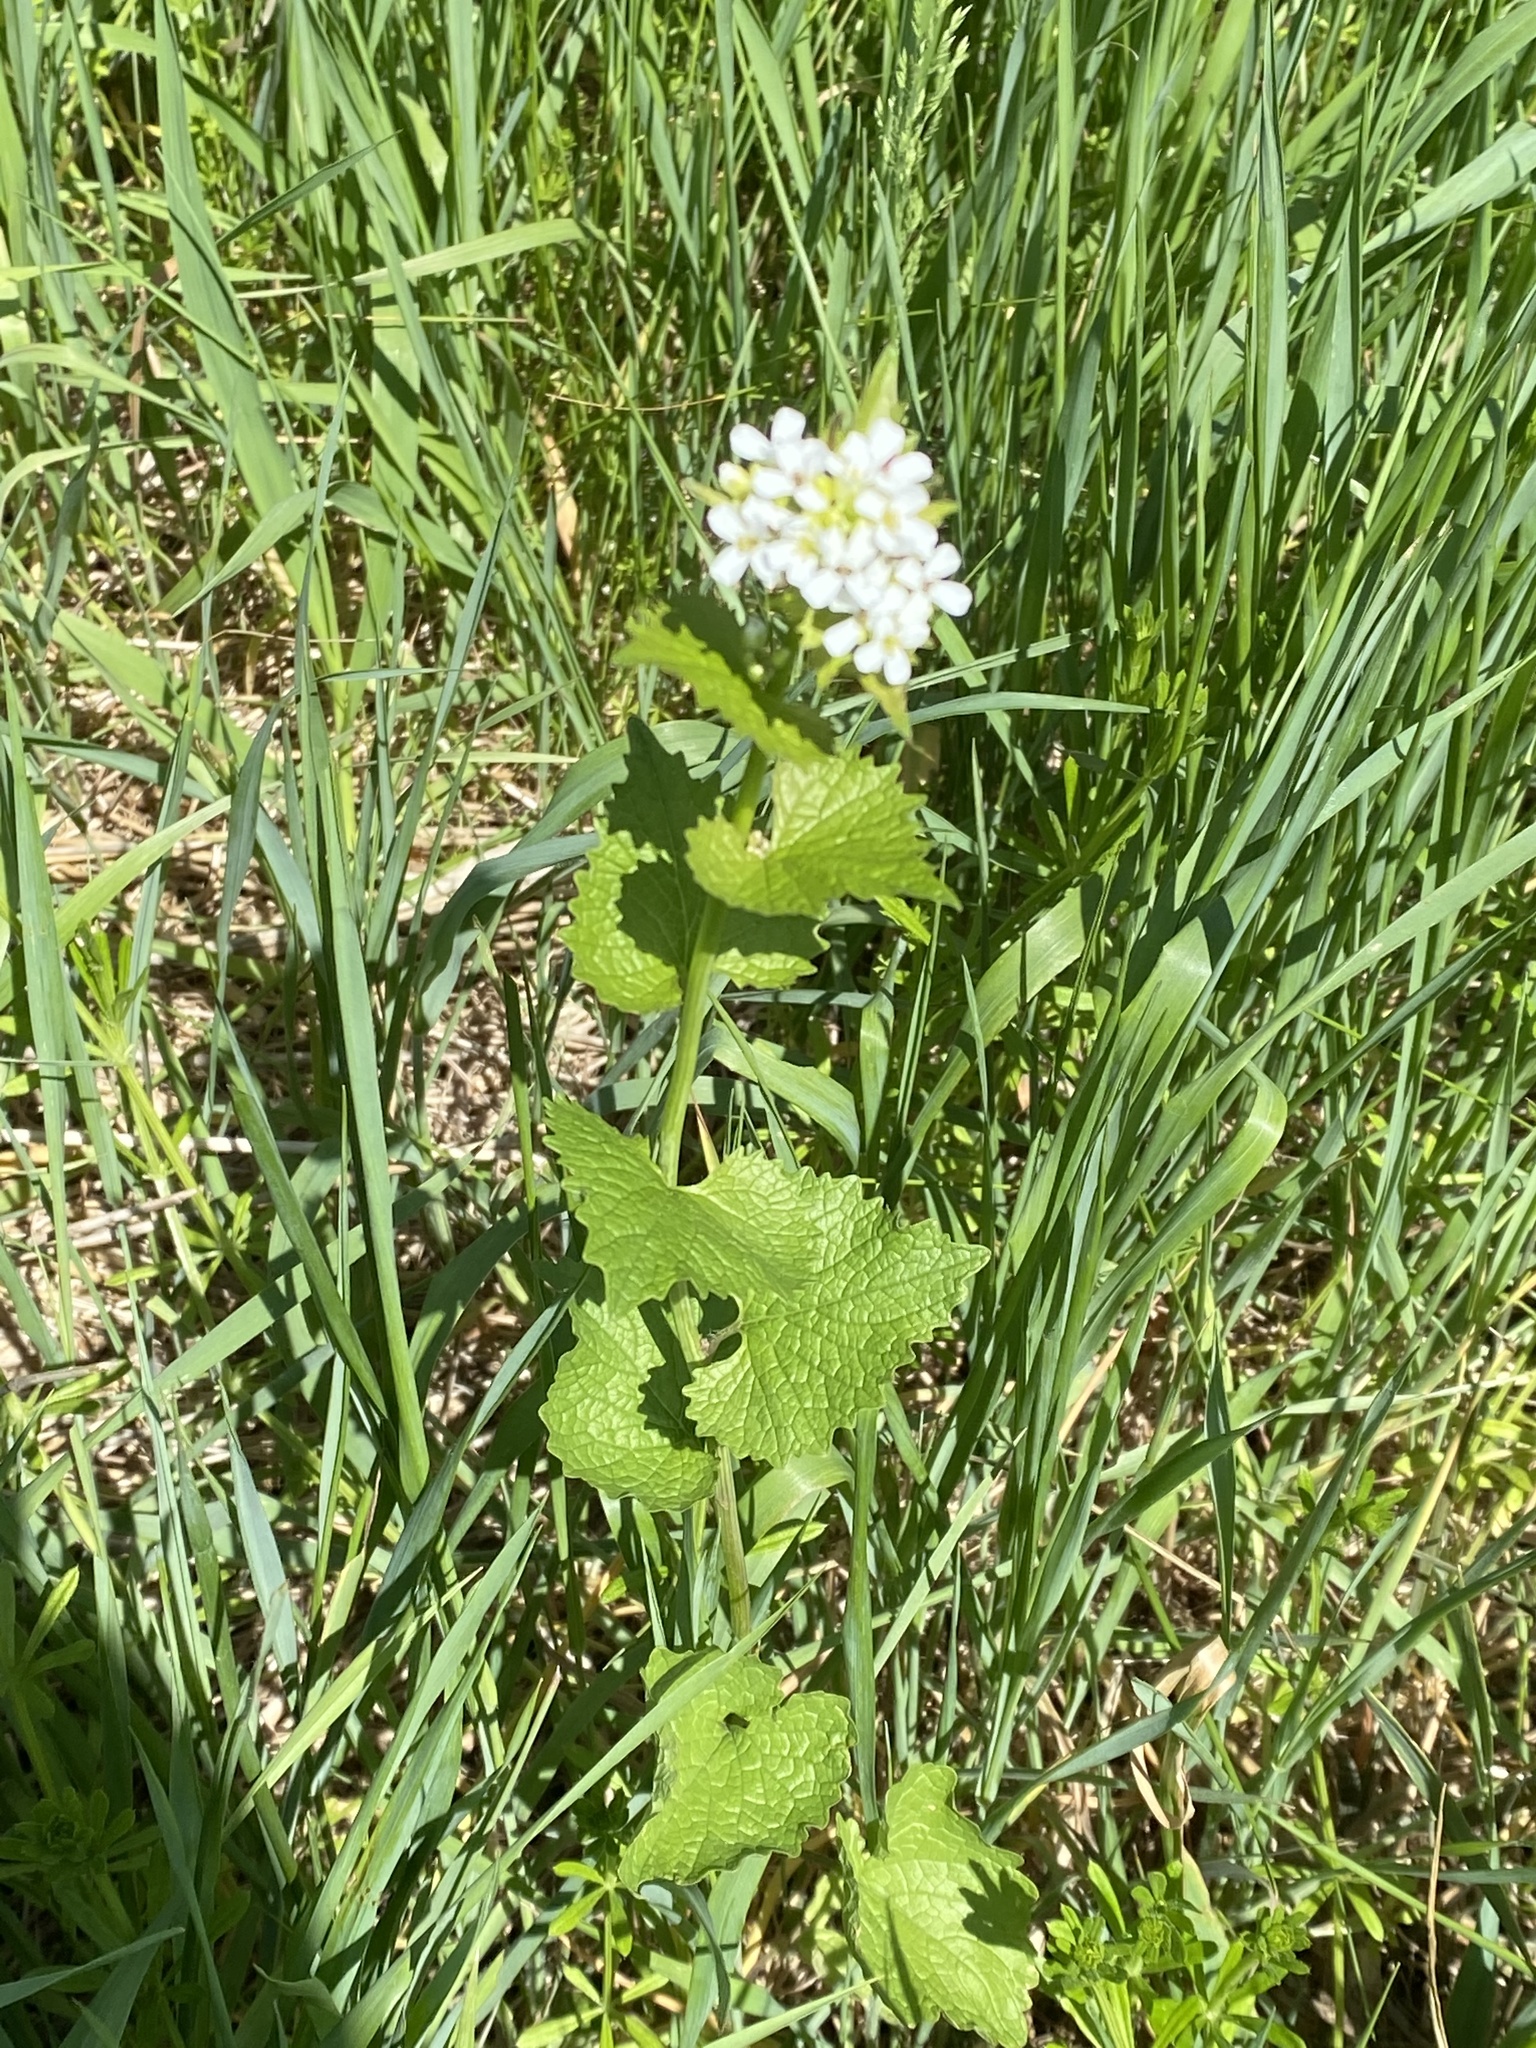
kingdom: Plantae
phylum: Tracheophyta
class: Magnoliopsida
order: Brassicales
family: Brassicaceae
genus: Alliaria
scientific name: Alliaria petiolata
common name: Garlic mustard
